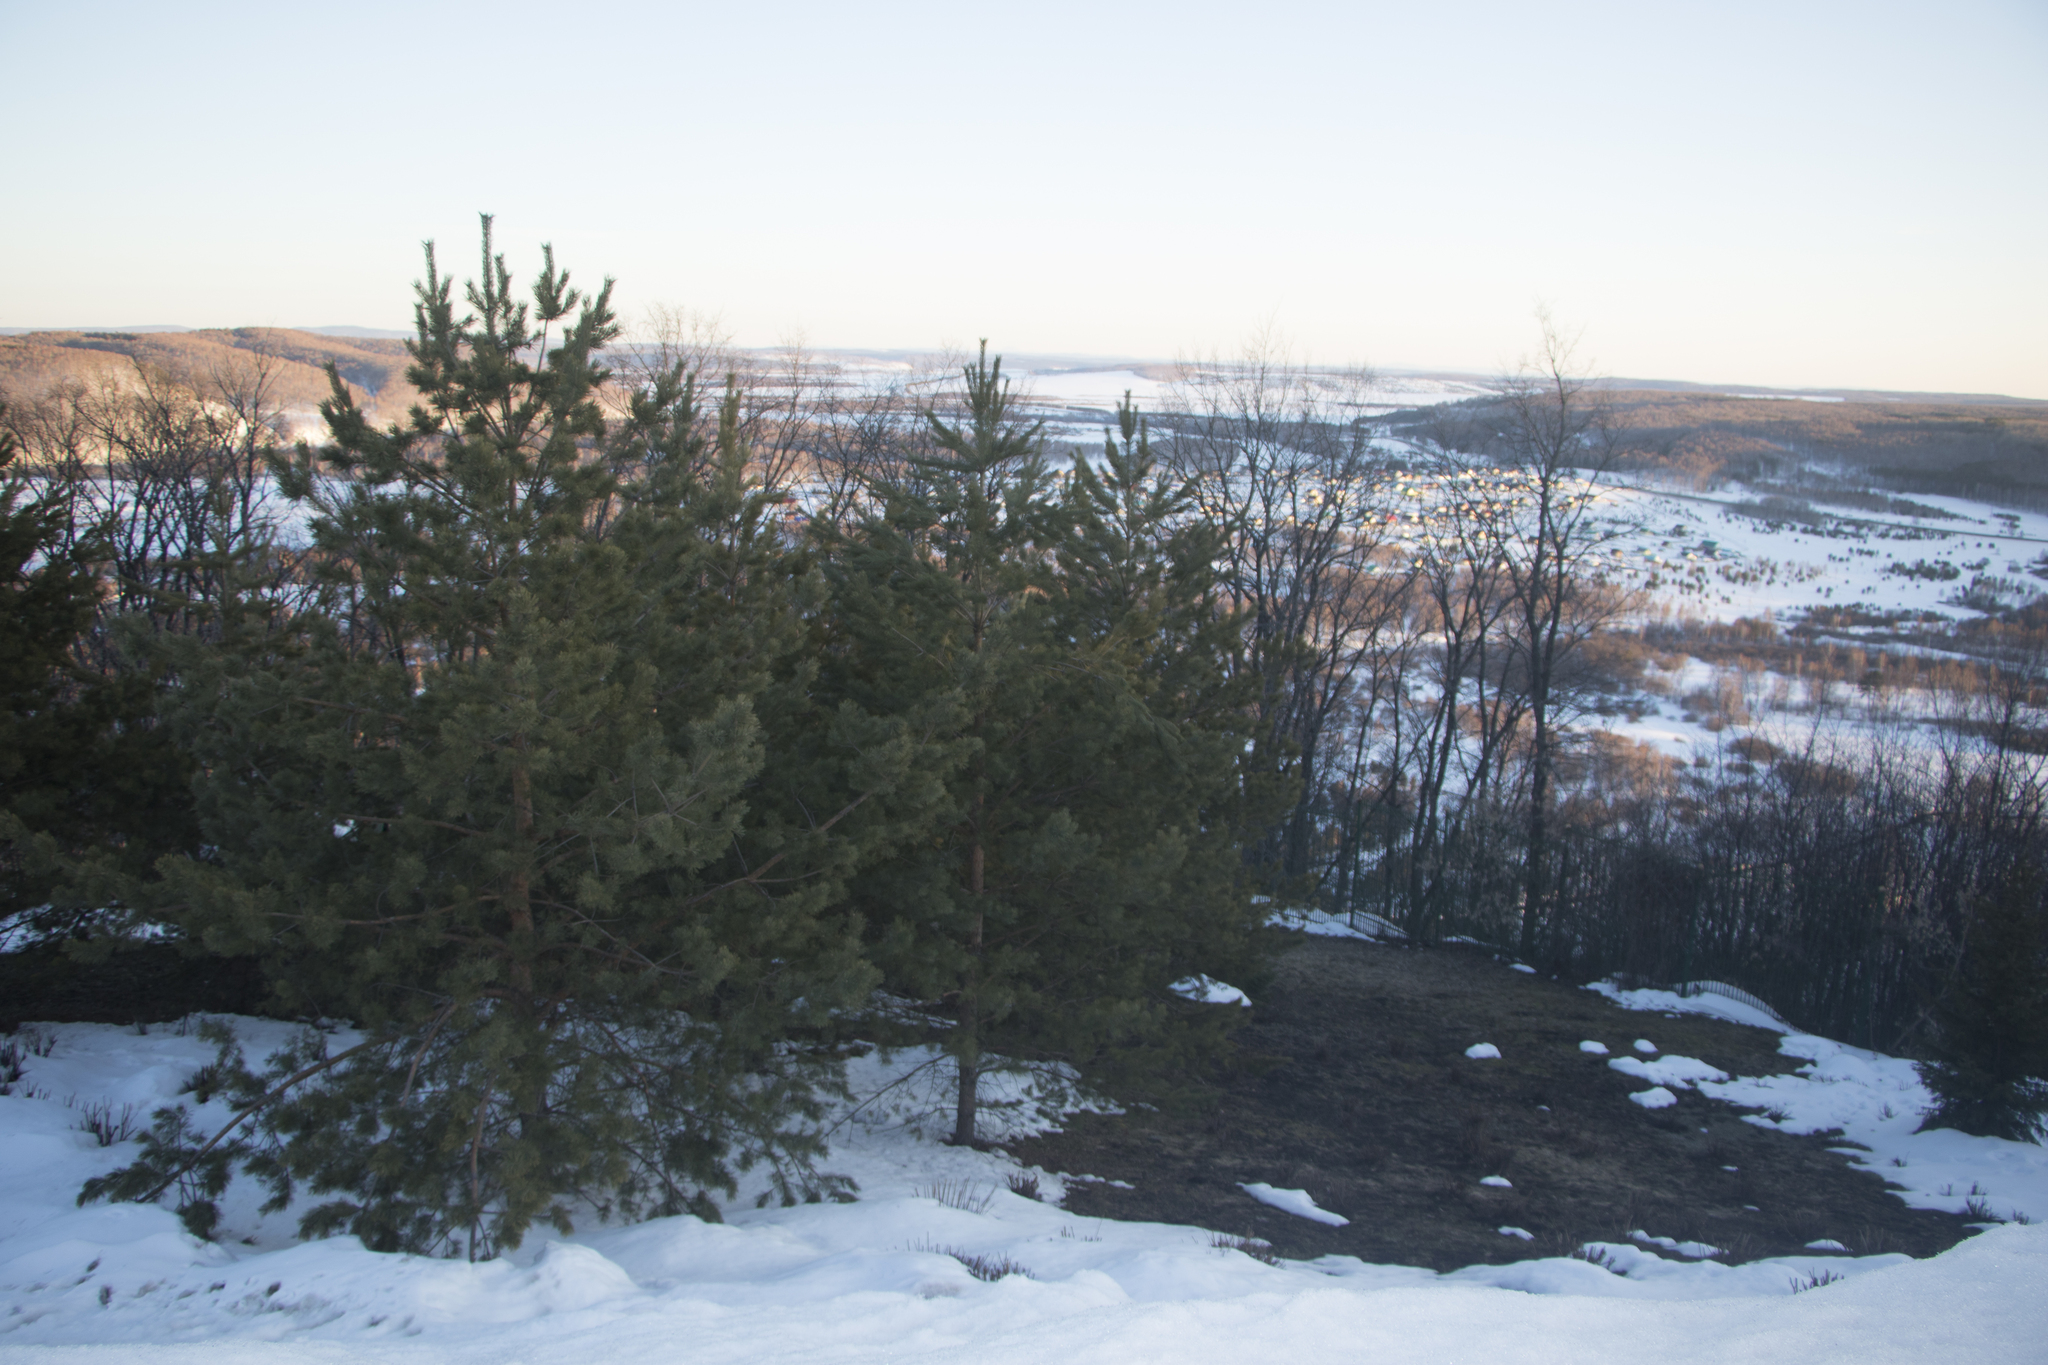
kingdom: Plantae
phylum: Tracheophyta
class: Pinopsida
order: Pinales
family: Pinaceae
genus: Pinus
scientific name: Pinus sylvestris
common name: Scots pine
